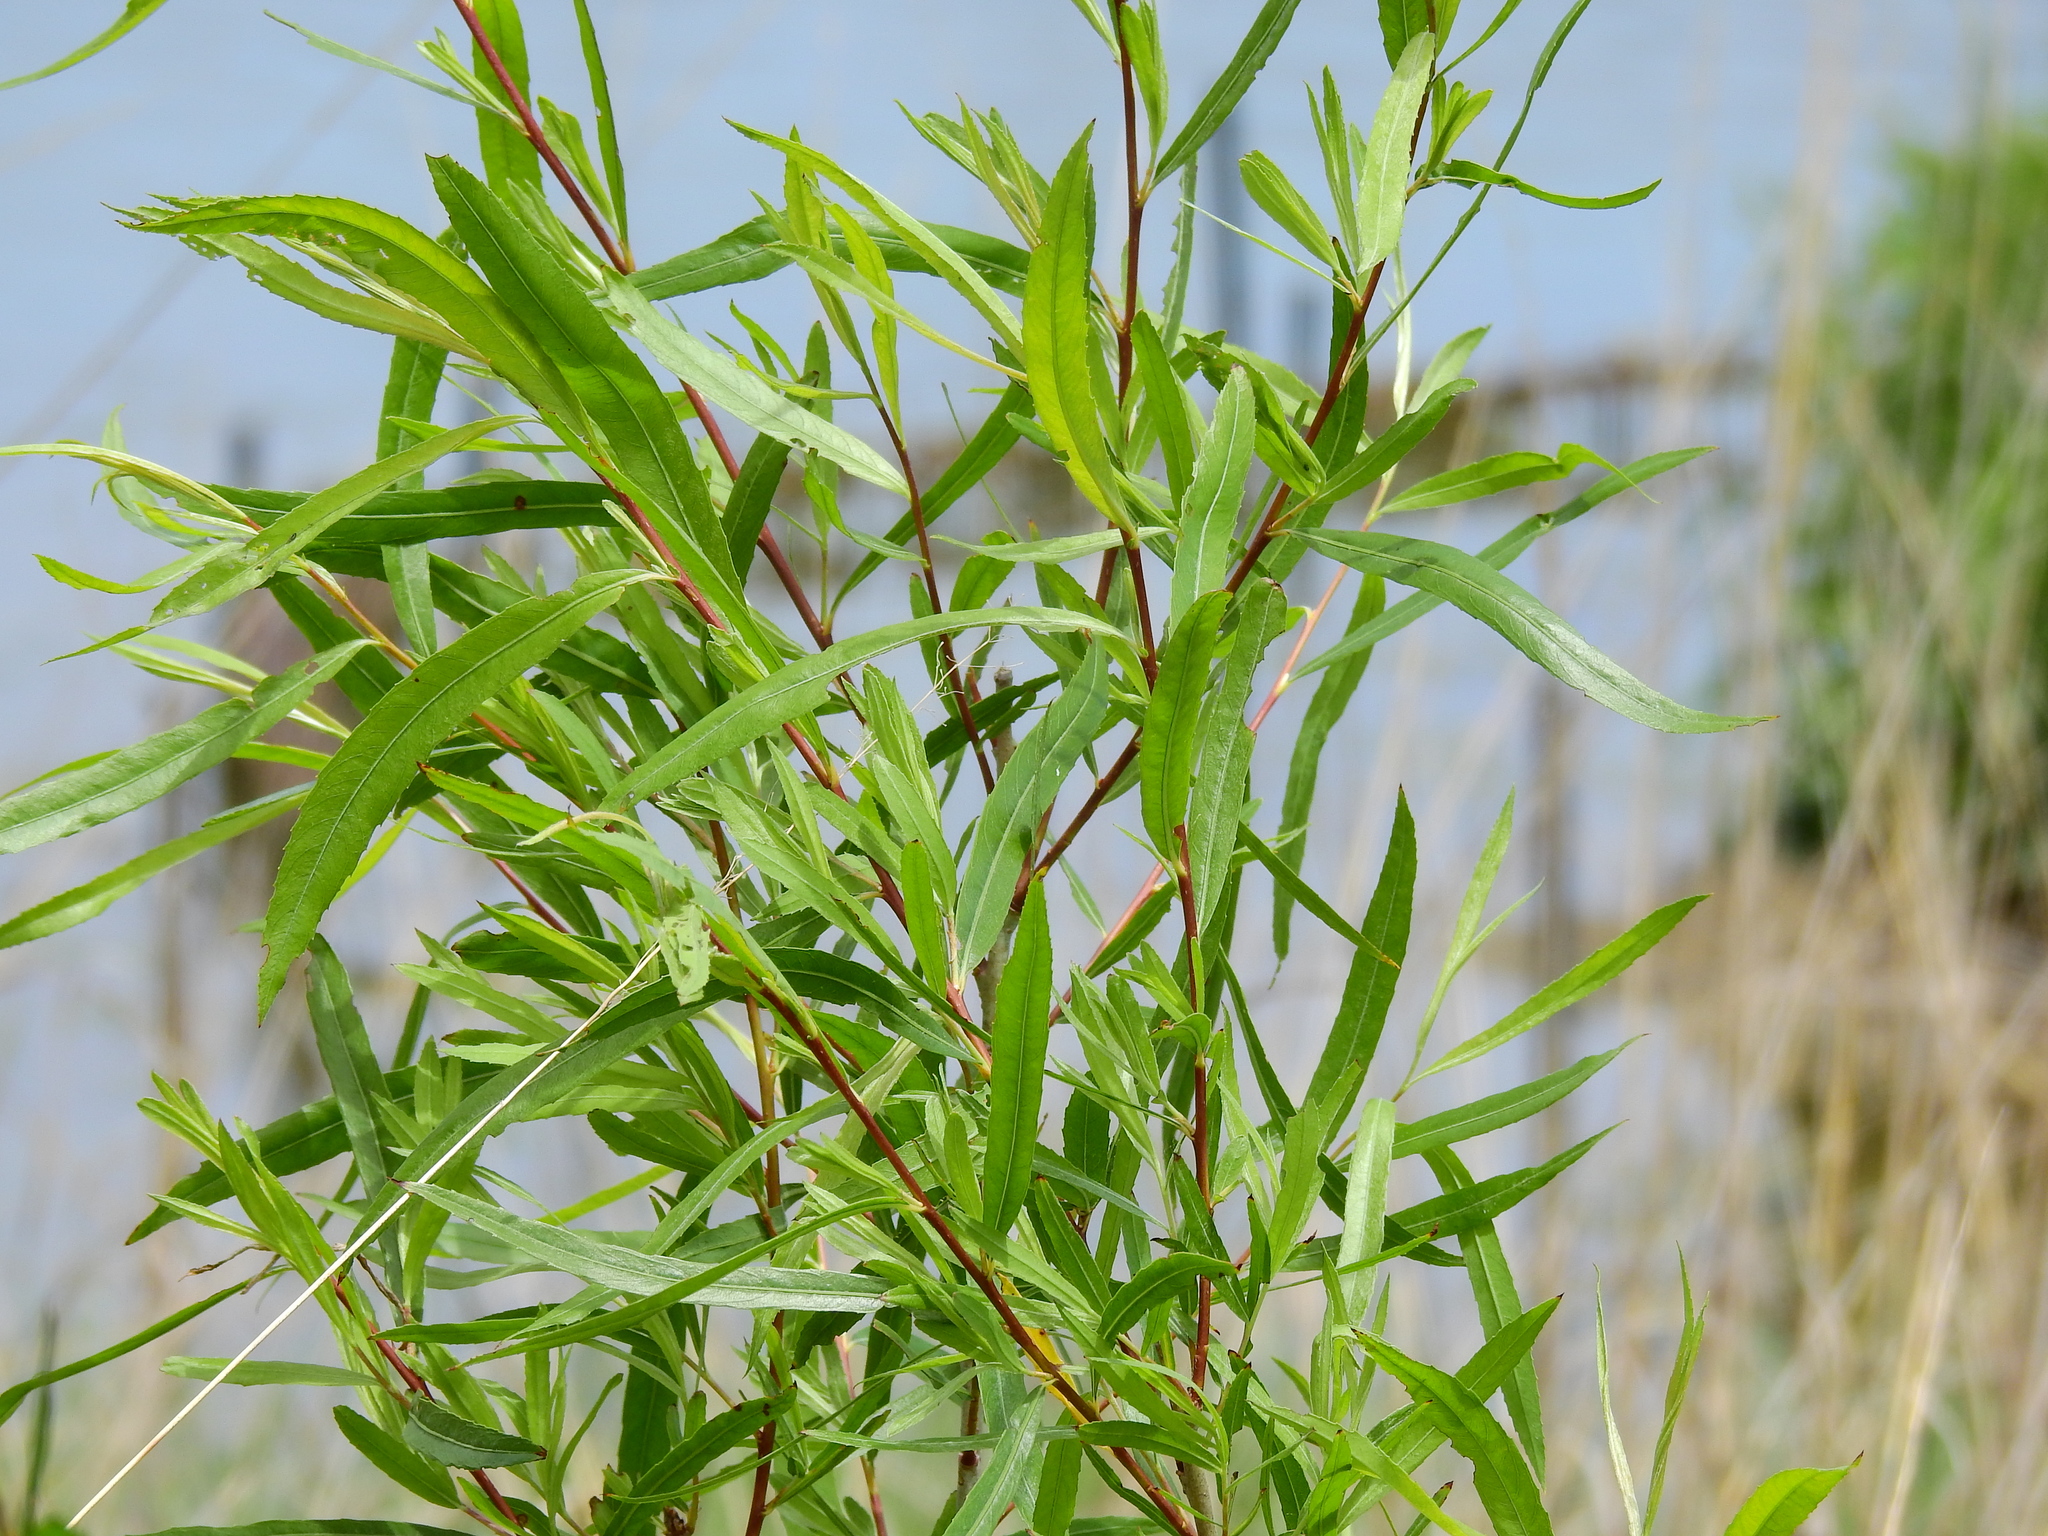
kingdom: Plantae
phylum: Tracheophyta
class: Magnoliopsida
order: Malpighiales
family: Salicaceae
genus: Salix
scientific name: Salix interior
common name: Sandbar willow
